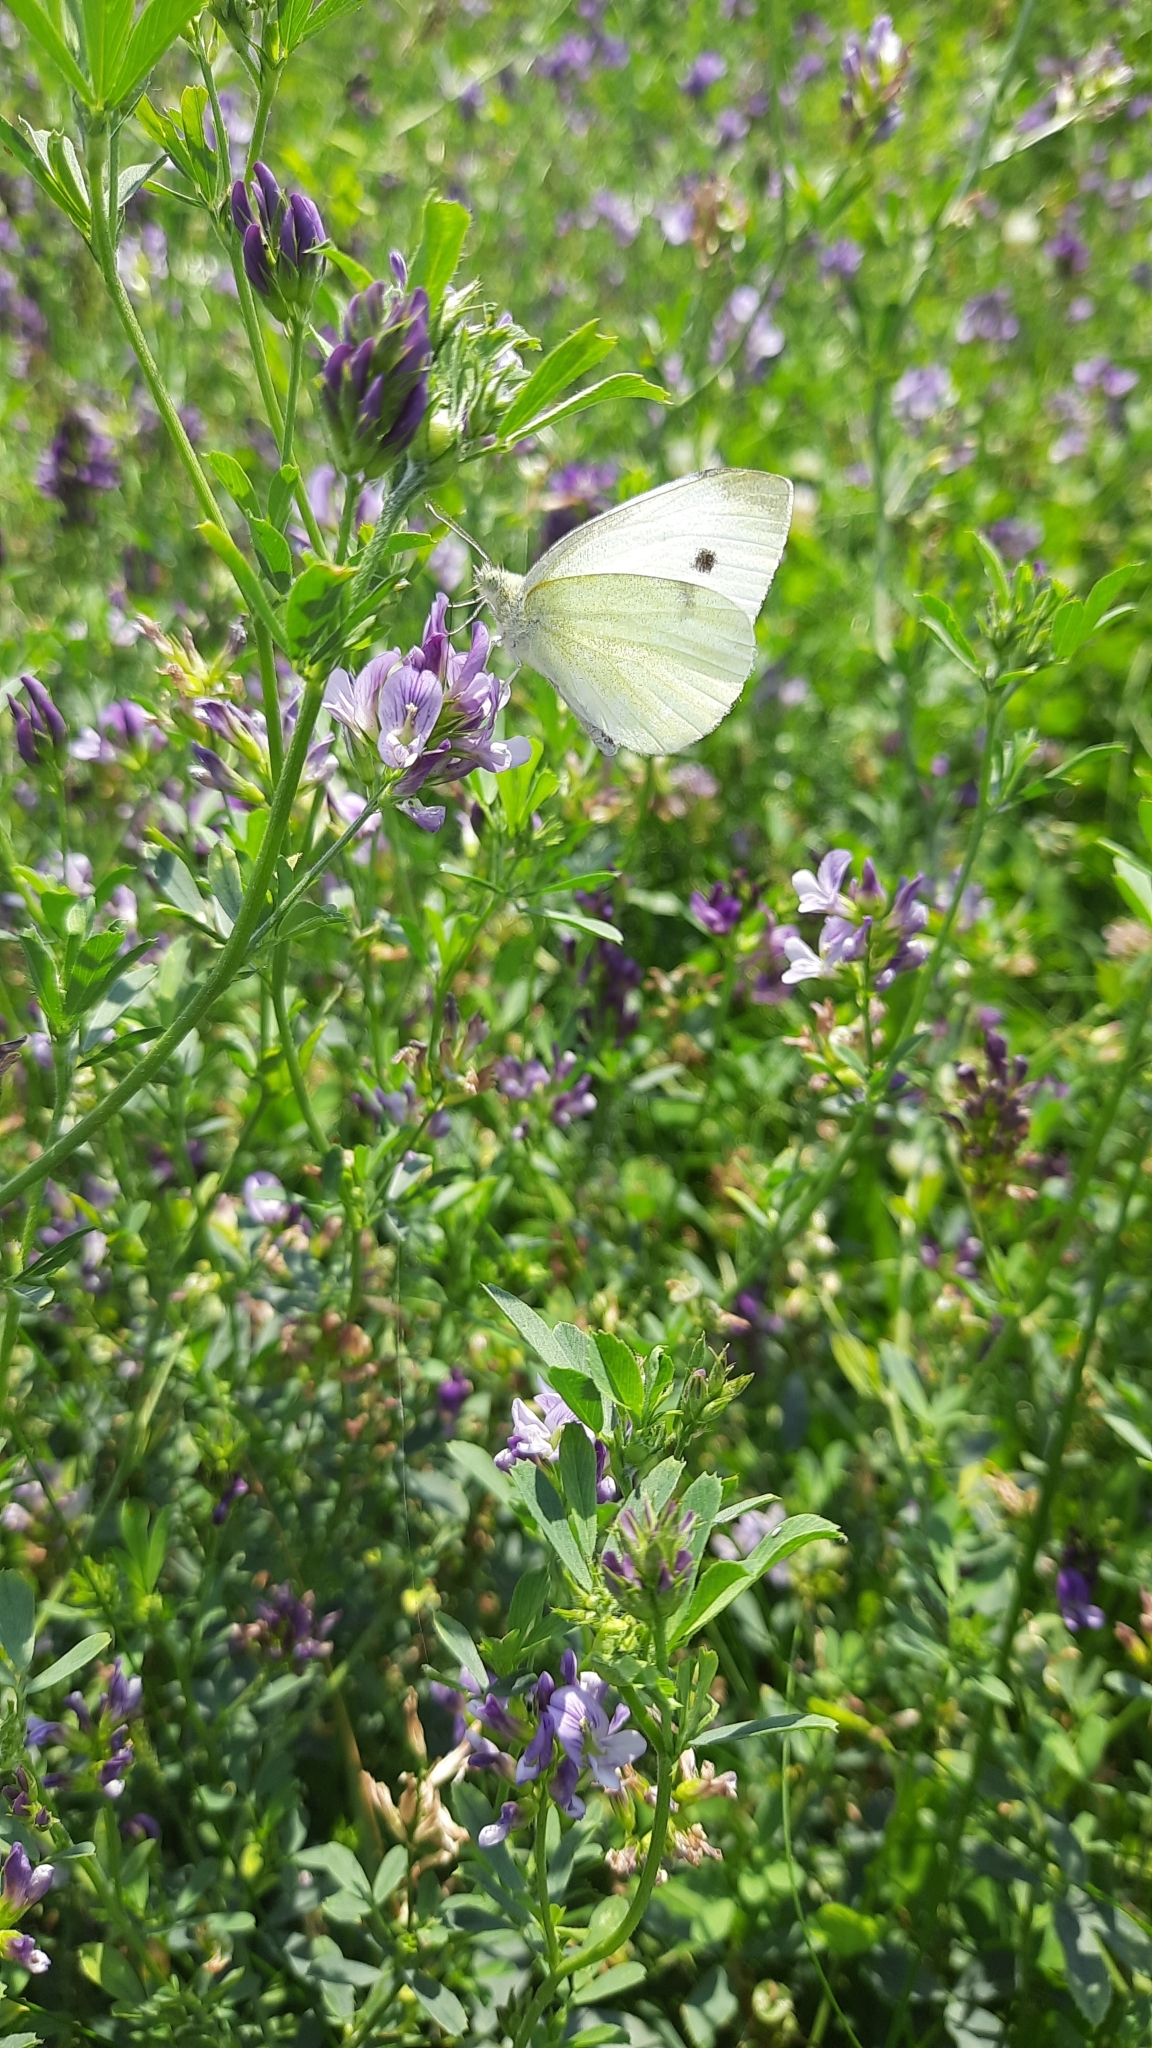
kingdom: Animalia
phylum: Arthropoda
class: Insecta
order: Lepidoptera
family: Pieridae
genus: Pieris
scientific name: Pieris rapae
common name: Small white
